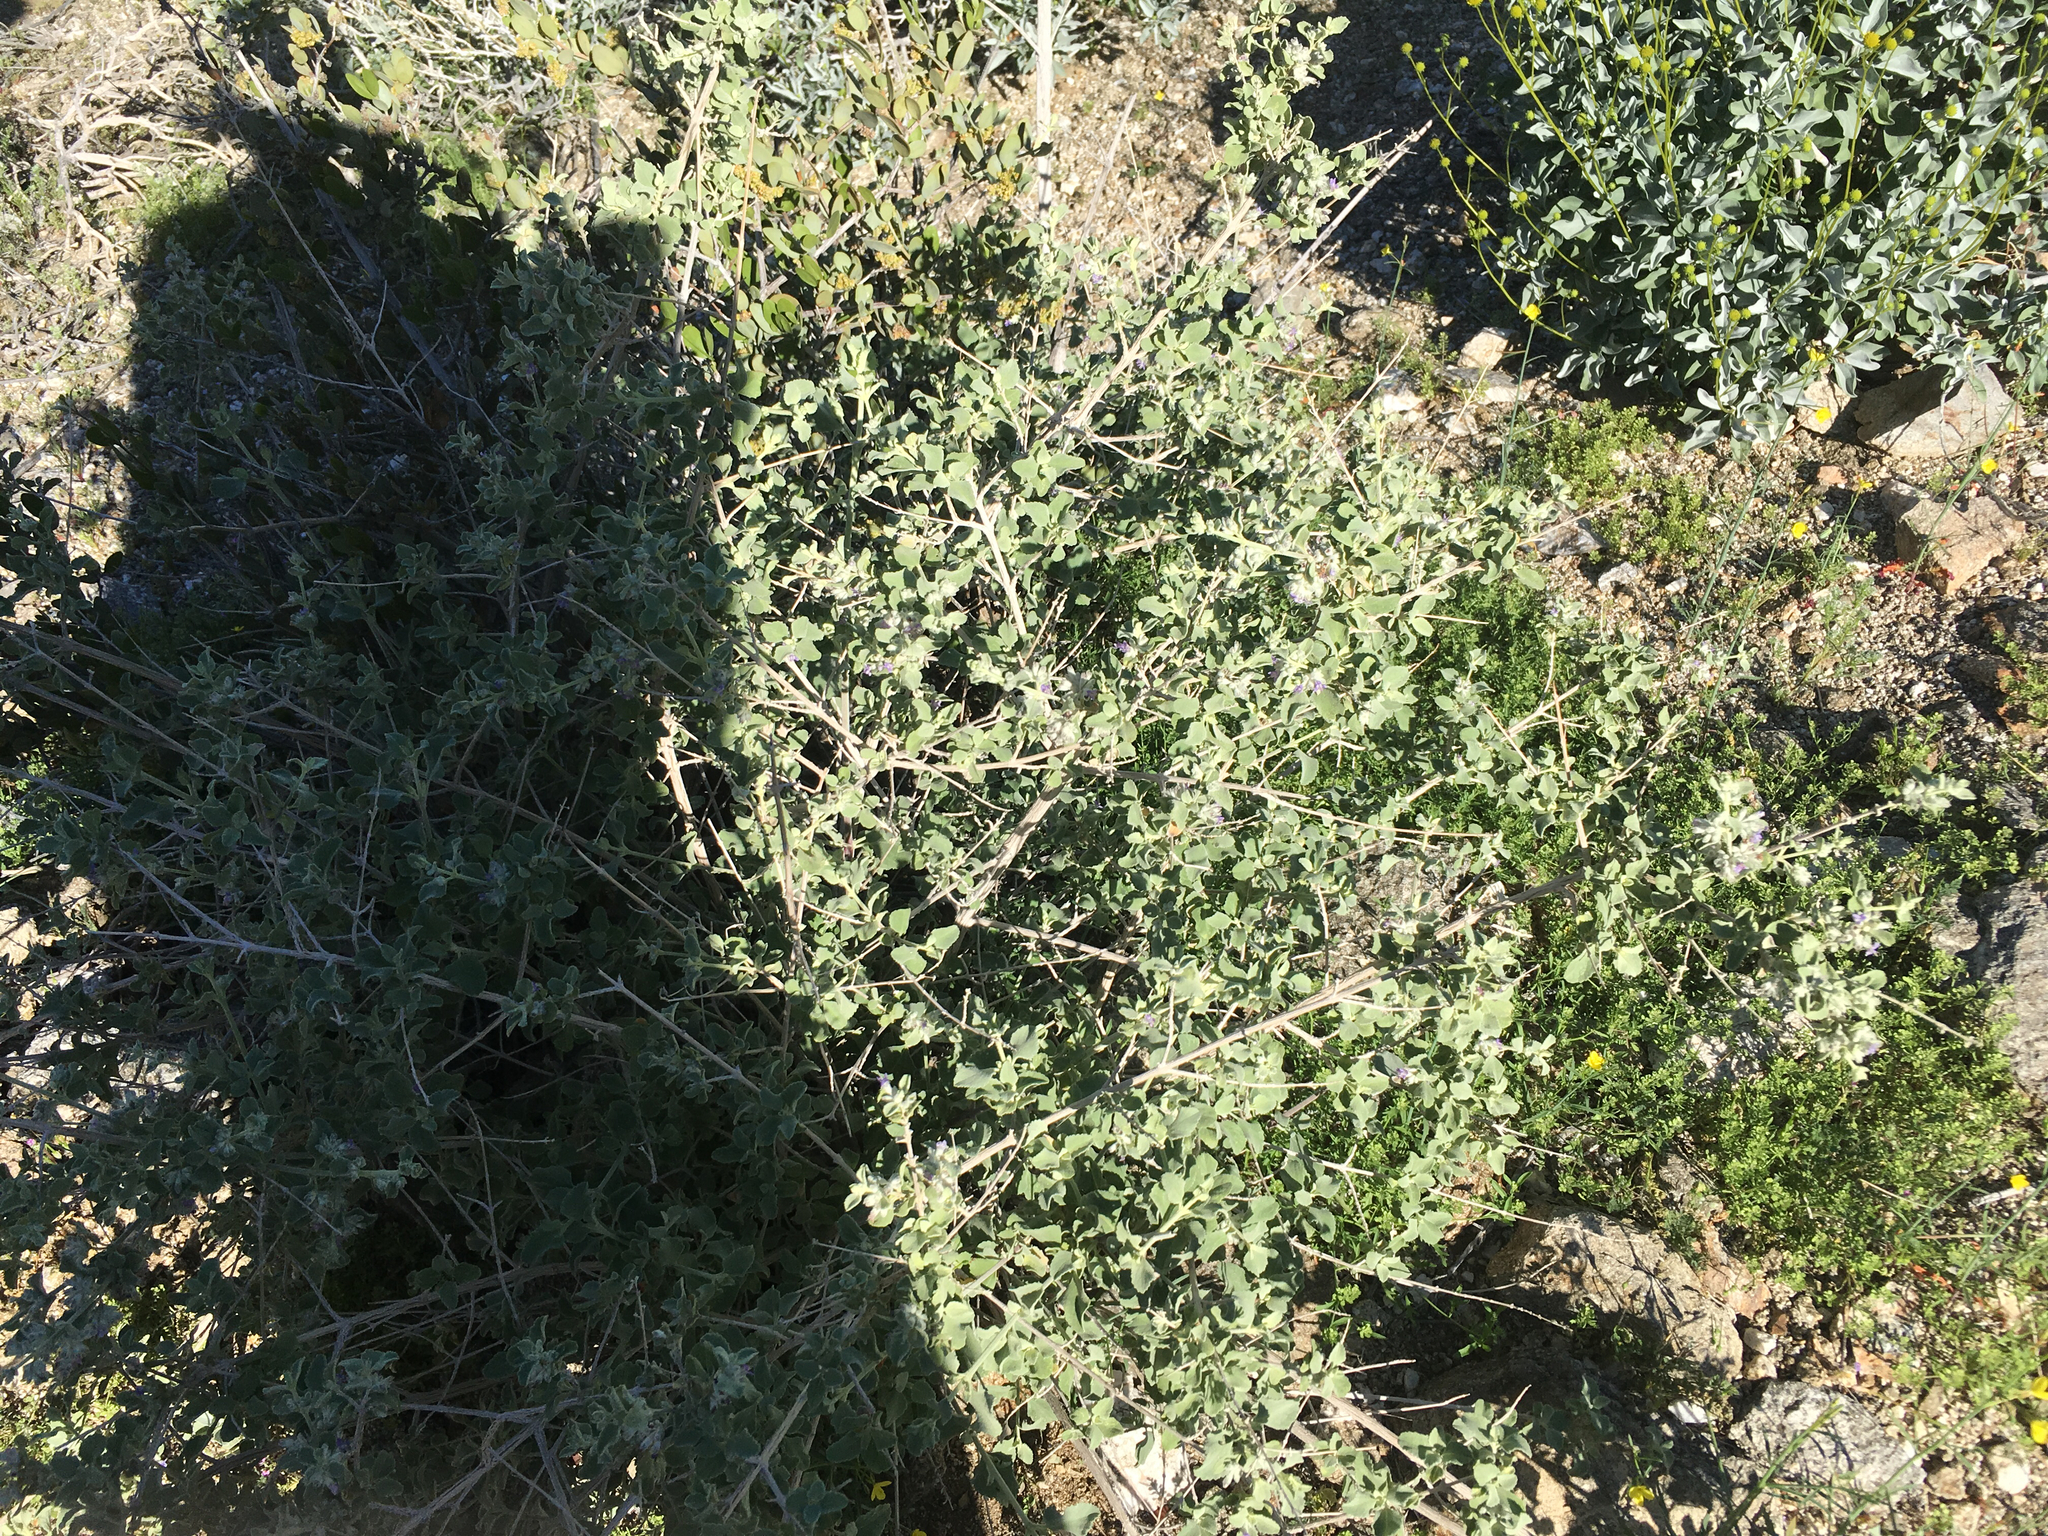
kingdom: Plantae
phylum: Tracheophyta
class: Magnoliopsida
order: Lamiales
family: Lamiaceae
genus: Condea
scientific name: Condea emoryi
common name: Chia
